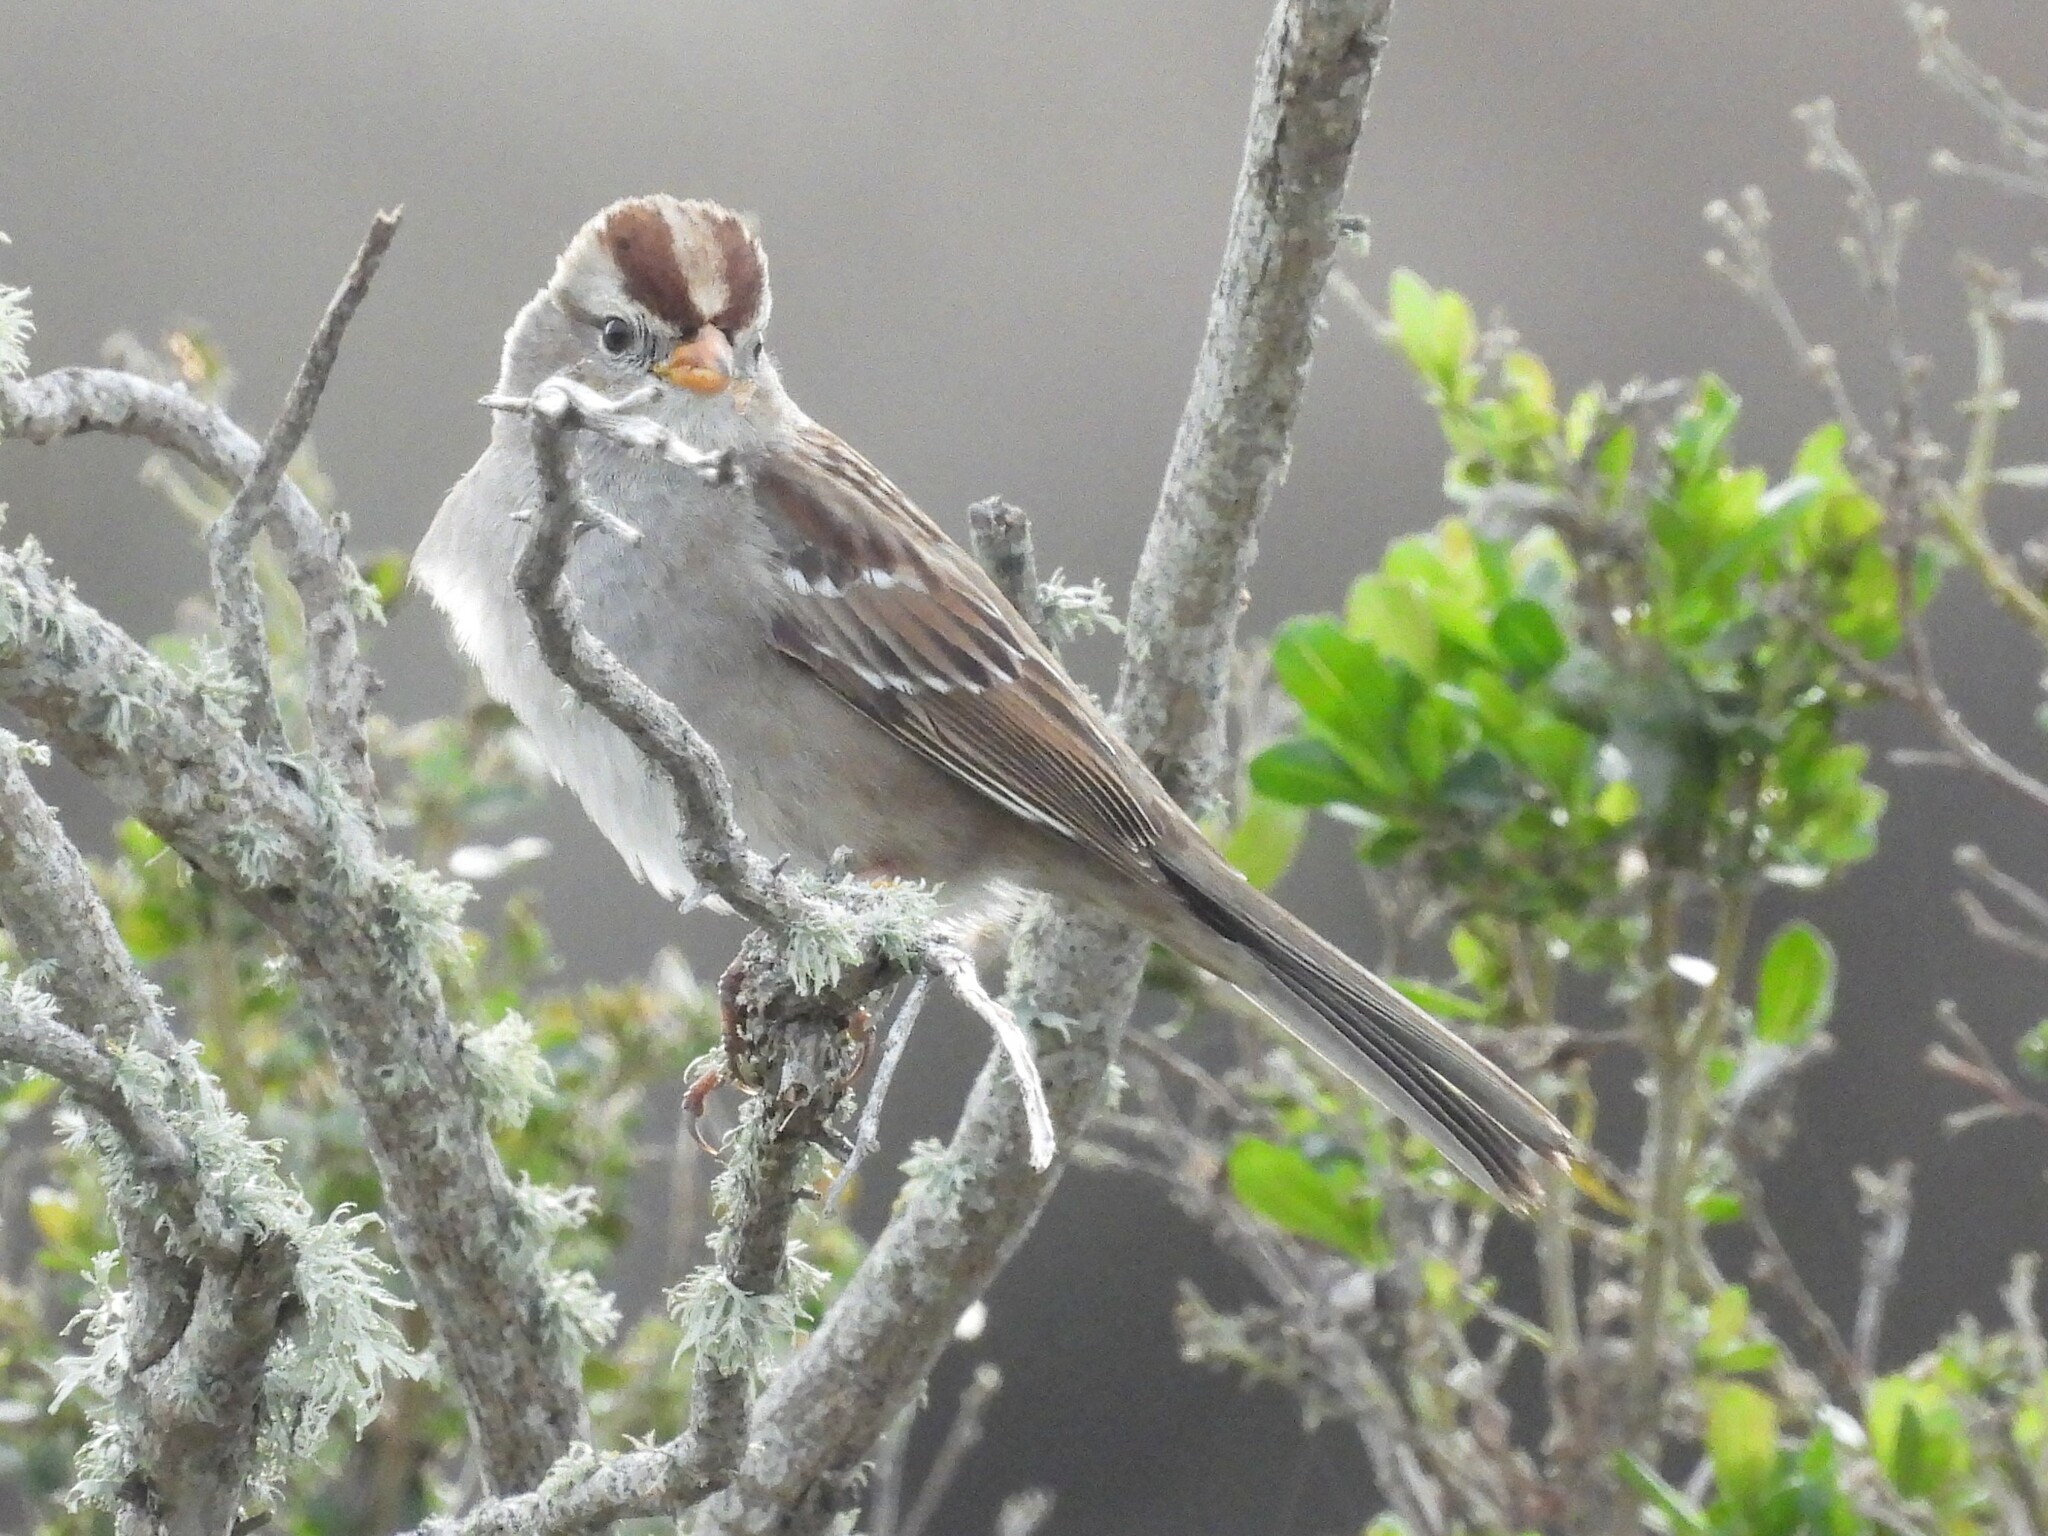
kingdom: Animalia
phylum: Chordata
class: Aves
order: Passeriformes
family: Passerellidae
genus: Zonotrichia
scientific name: Zonotrichia leucophrys
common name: White-crowned sparrow
